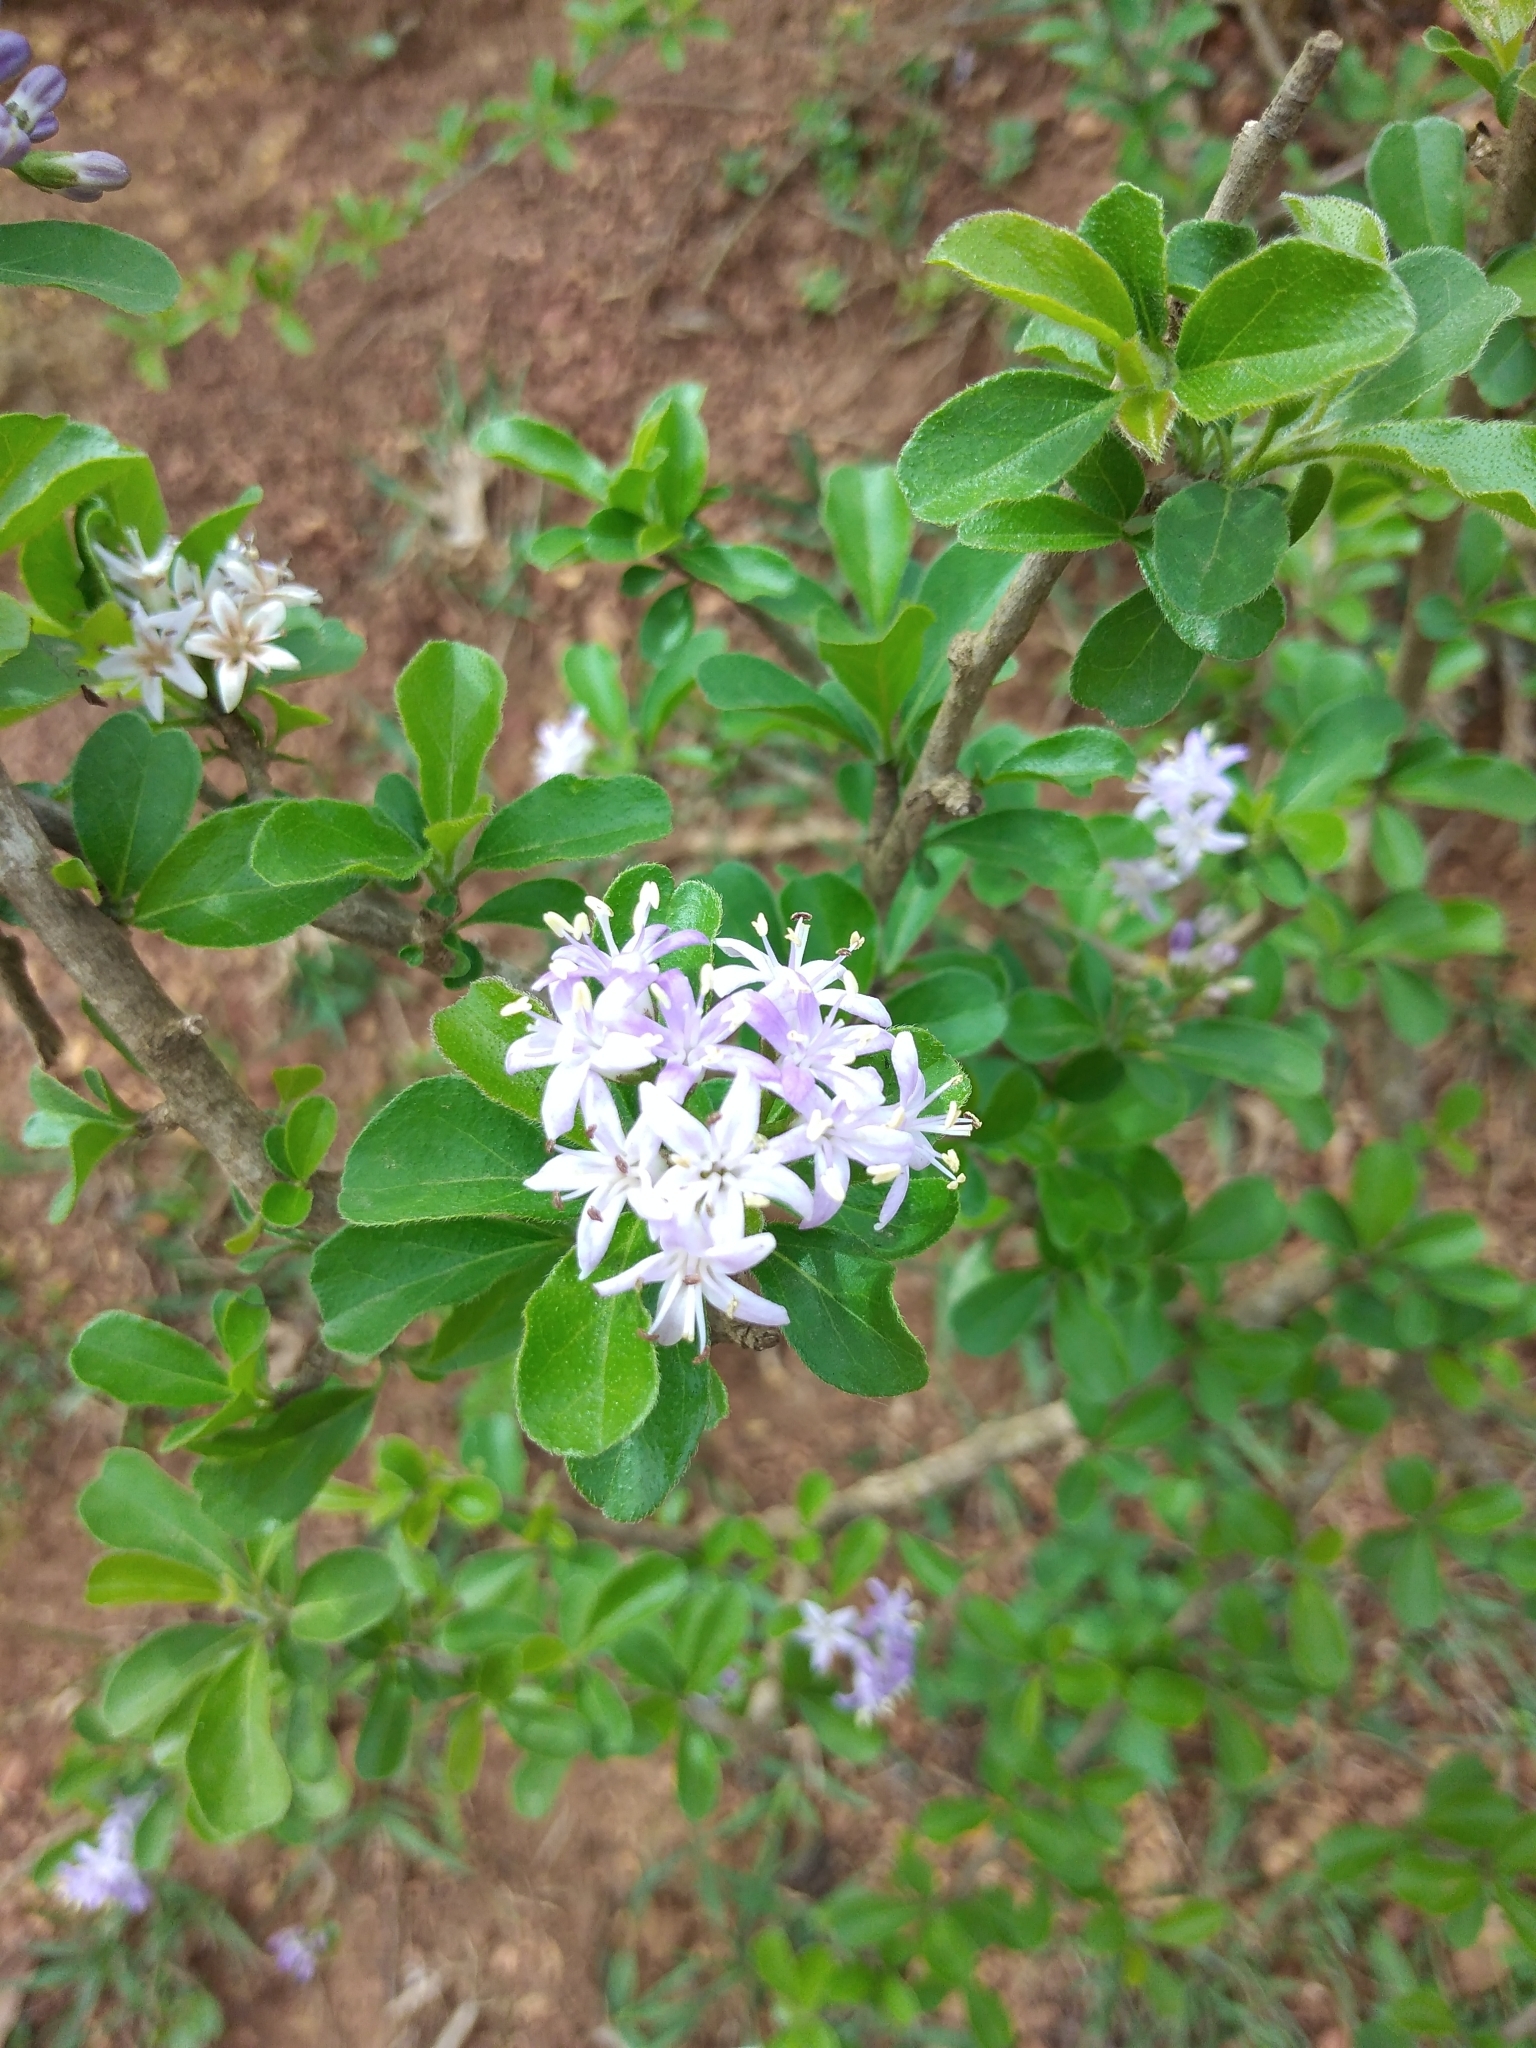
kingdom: Plantae
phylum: Tracheophyta
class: Magnoliopsida
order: Boraginales
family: Ehretiaceae
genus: Ehretia
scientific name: Ehretia rigida
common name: Cape lilac
